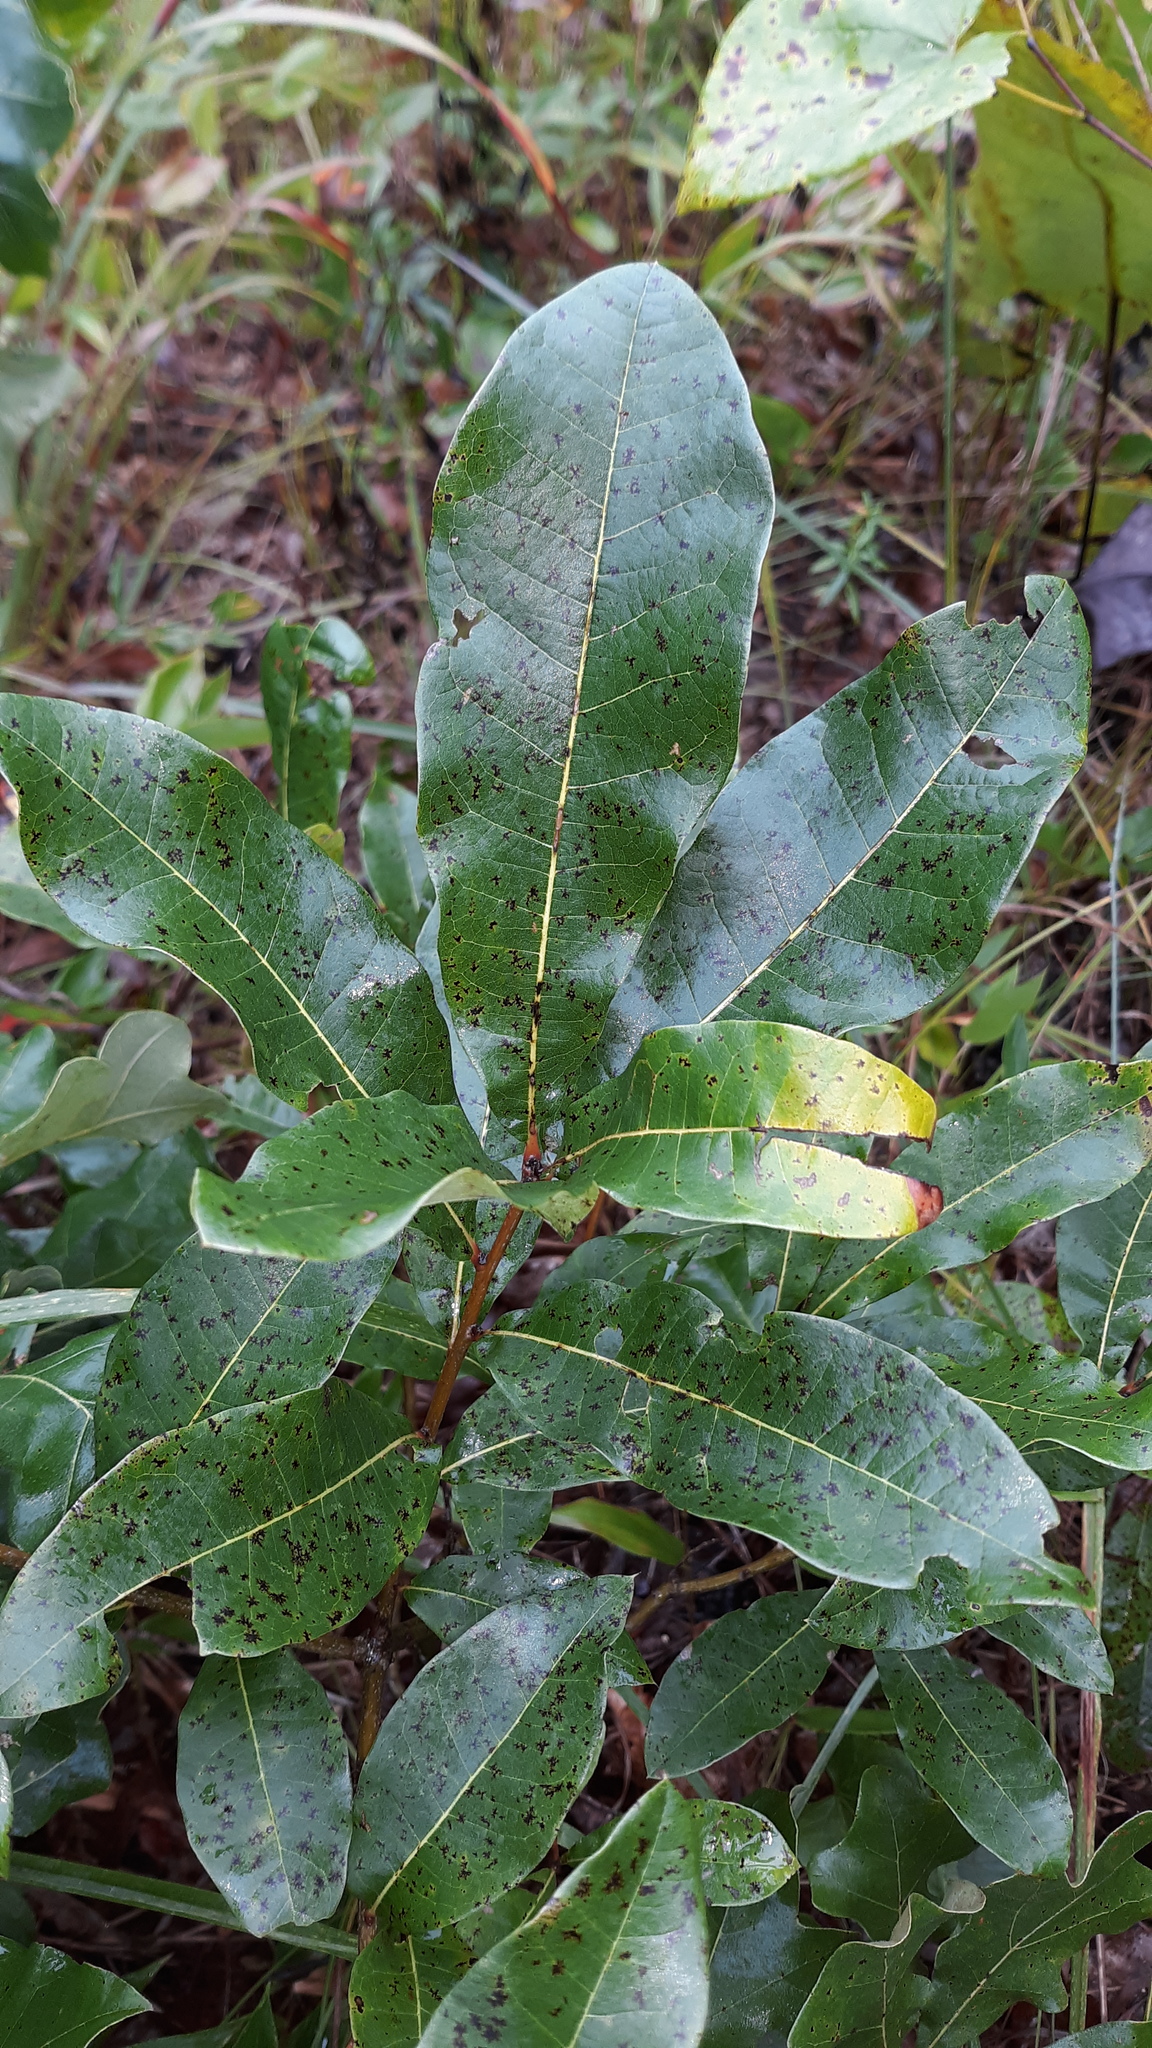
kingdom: Plantae
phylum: Tracheophyta
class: Magnoliopsida
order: Fagales
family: Fagaceae
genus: Quercus
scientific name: Quercus imbricaria
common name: Shingle oak
